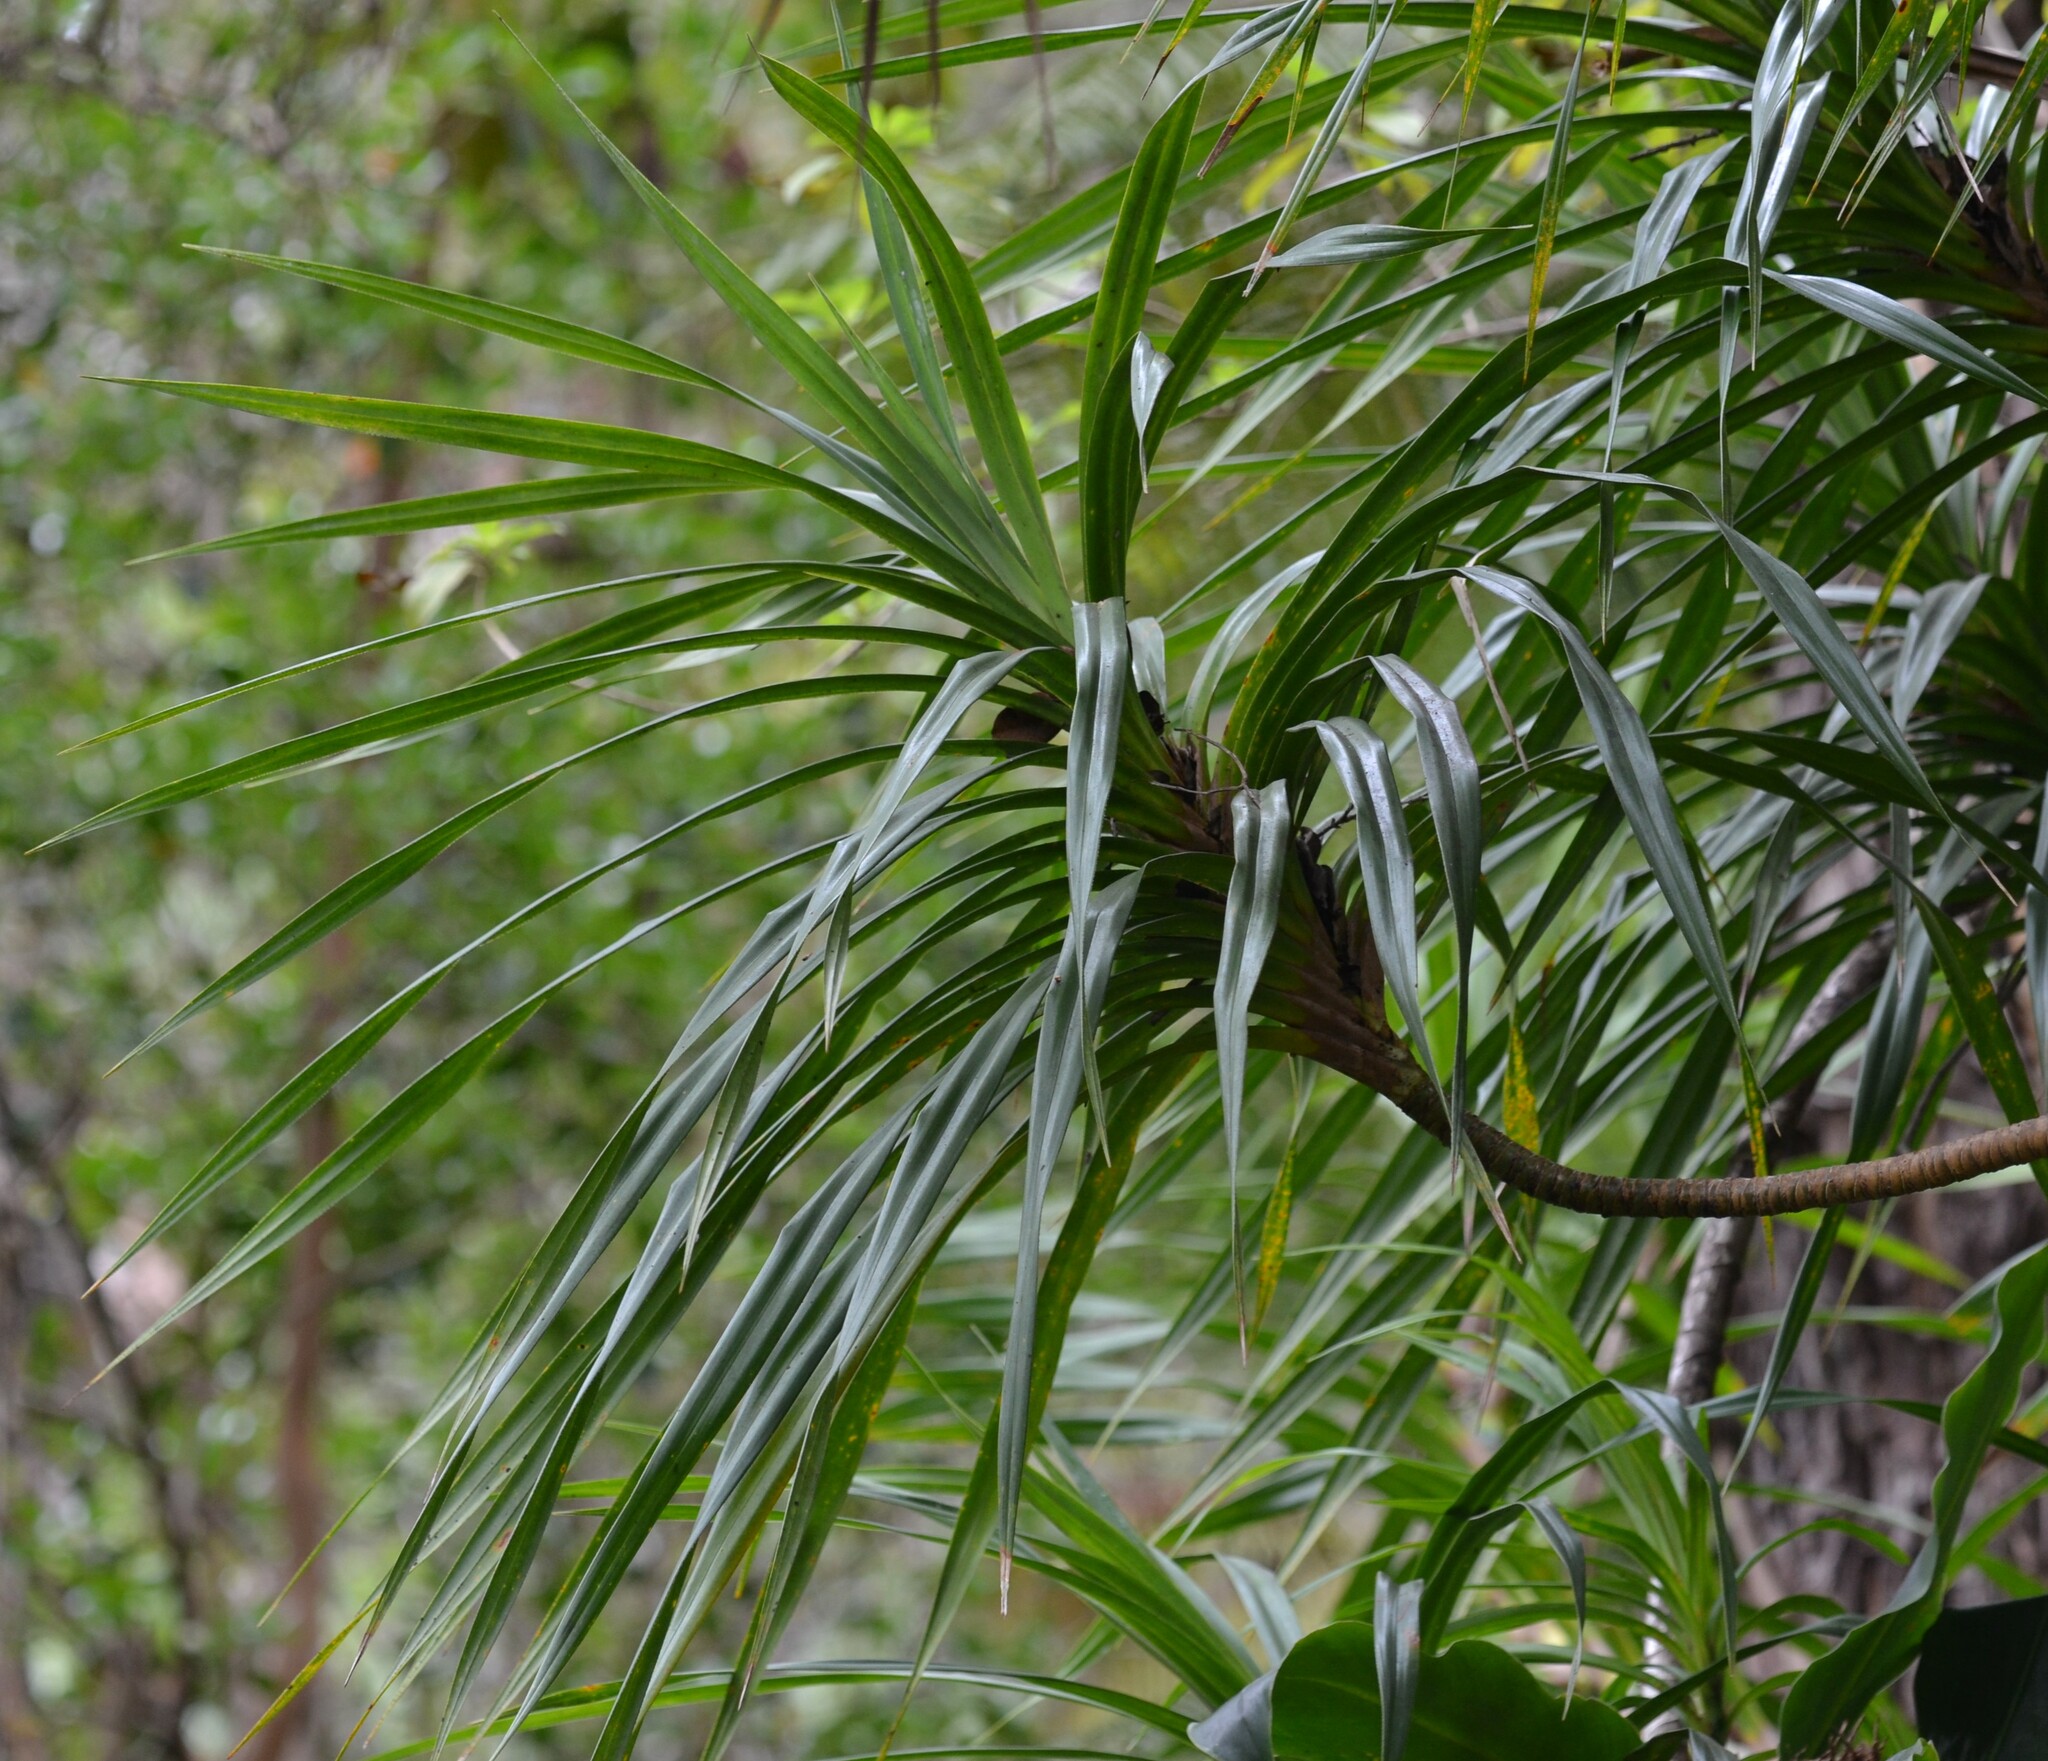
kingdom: Plantae
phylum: Tracheophyta
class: Liliopsida
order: Pandanales
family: Pandanaceae
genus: Freycinetia
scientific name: Freycinetia arborea
